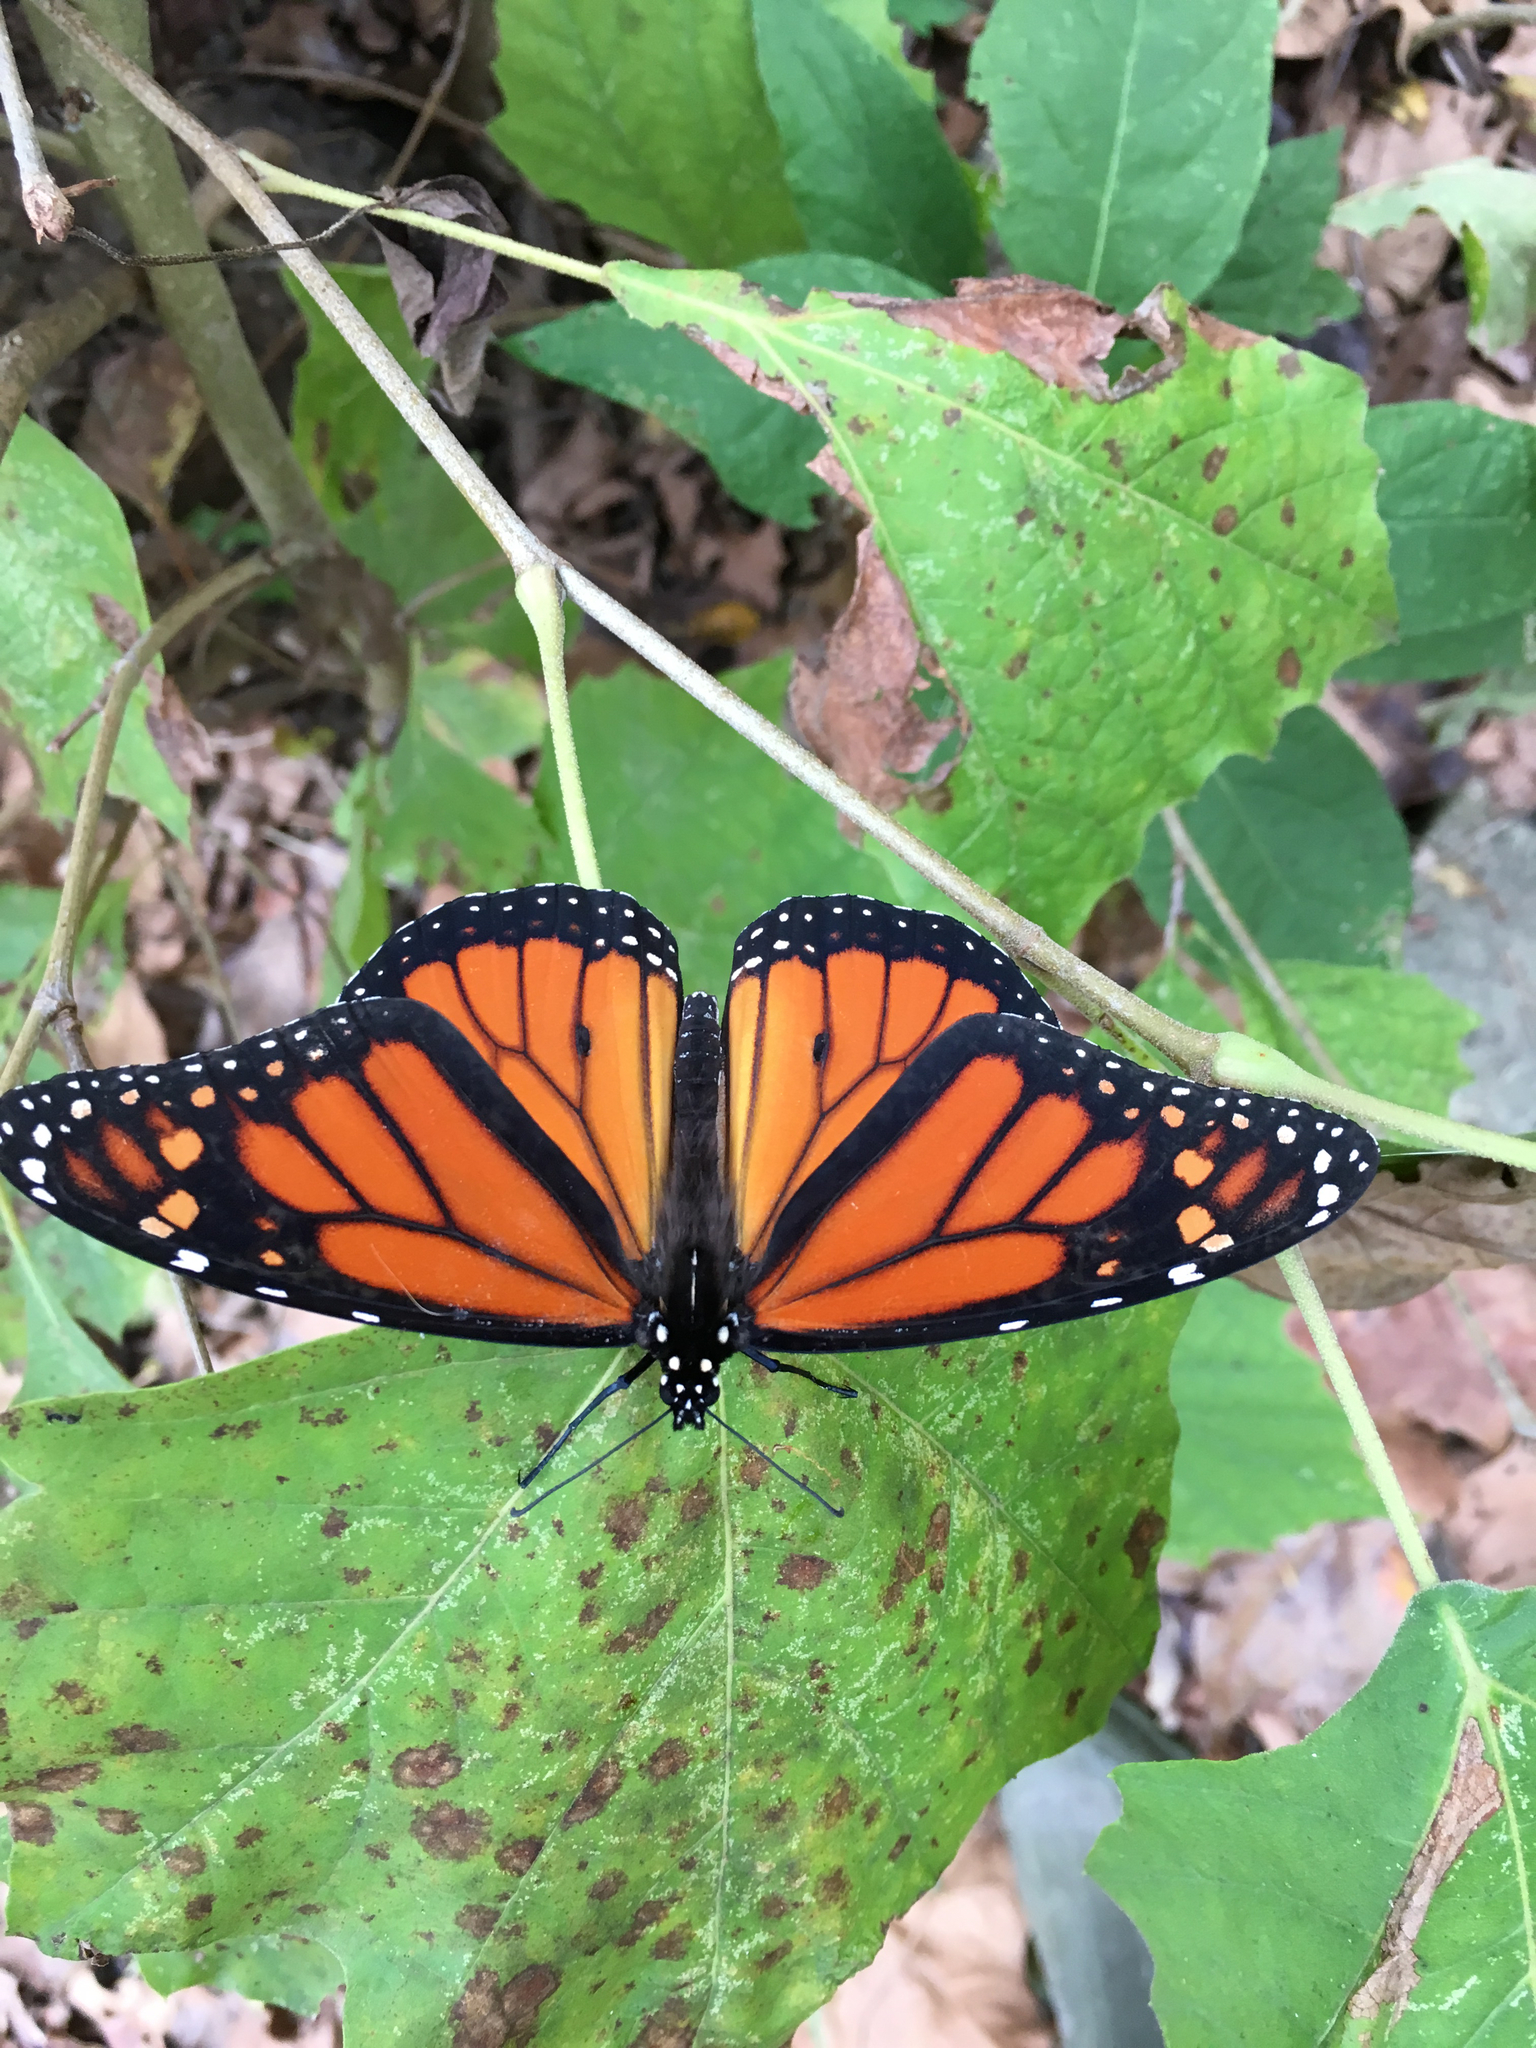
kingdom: Animalia
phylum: Arthropoda
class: Insecta
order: Lepidoptera
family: Nymphalidae
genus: Danaus
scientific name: Danaus plexippus
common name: Monarch
